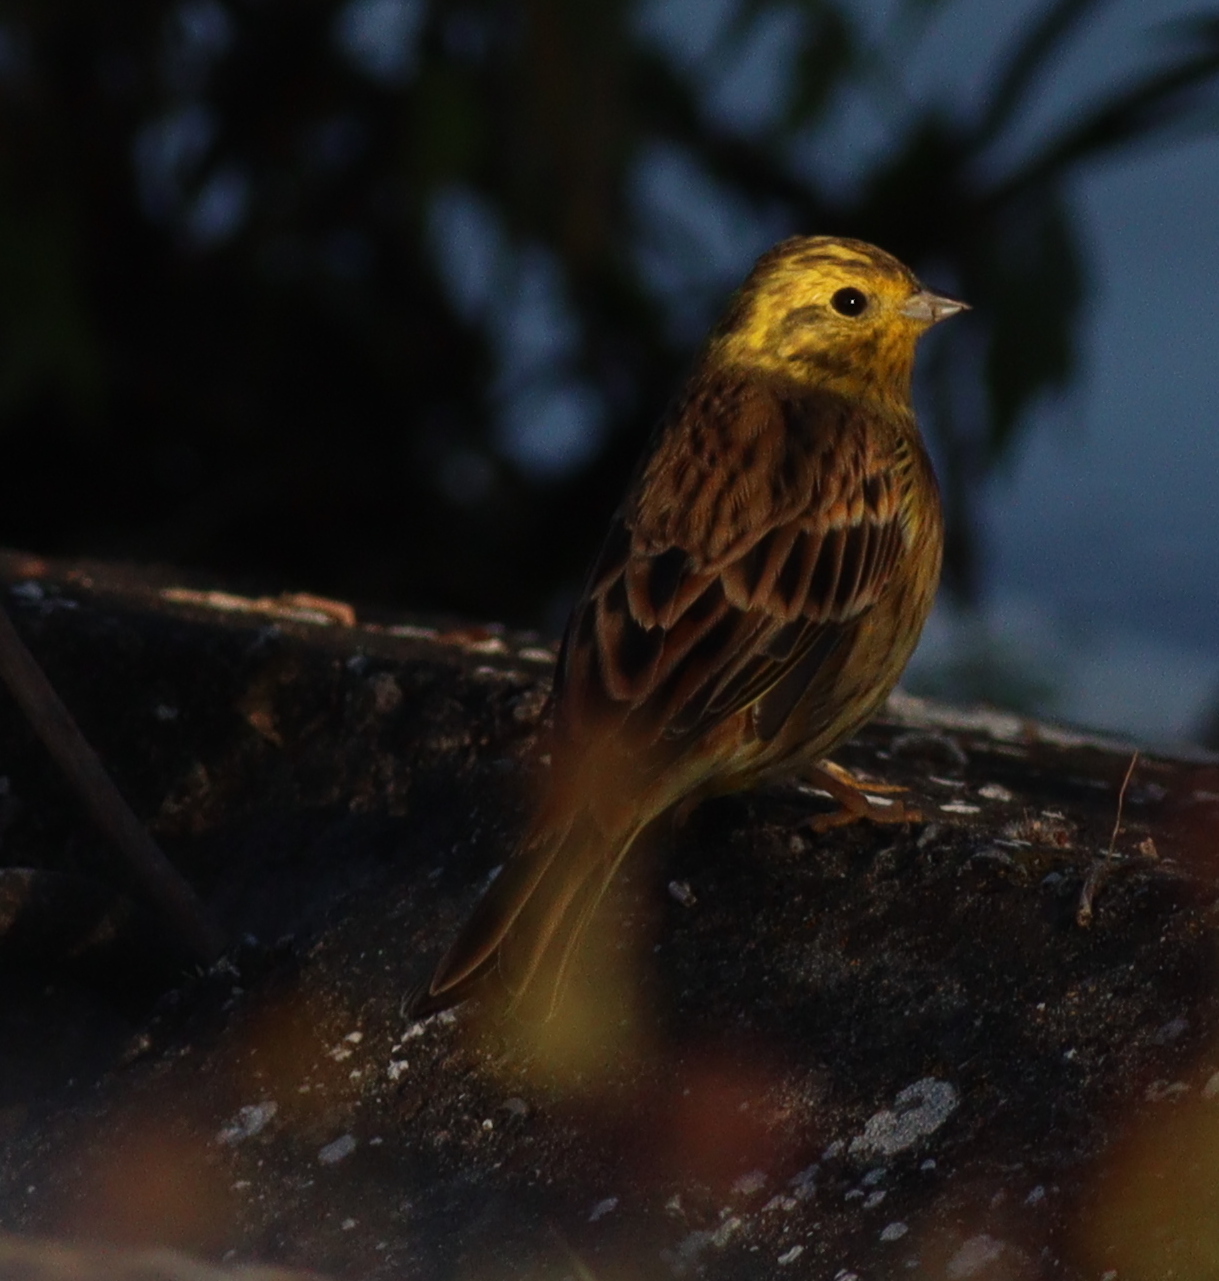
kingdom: Animalia
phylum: Chordata
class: Aves
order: Passeriformes
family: Emberizidae
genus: Emberiza
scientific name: Emberiza citrinella
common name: Yellowhammer
